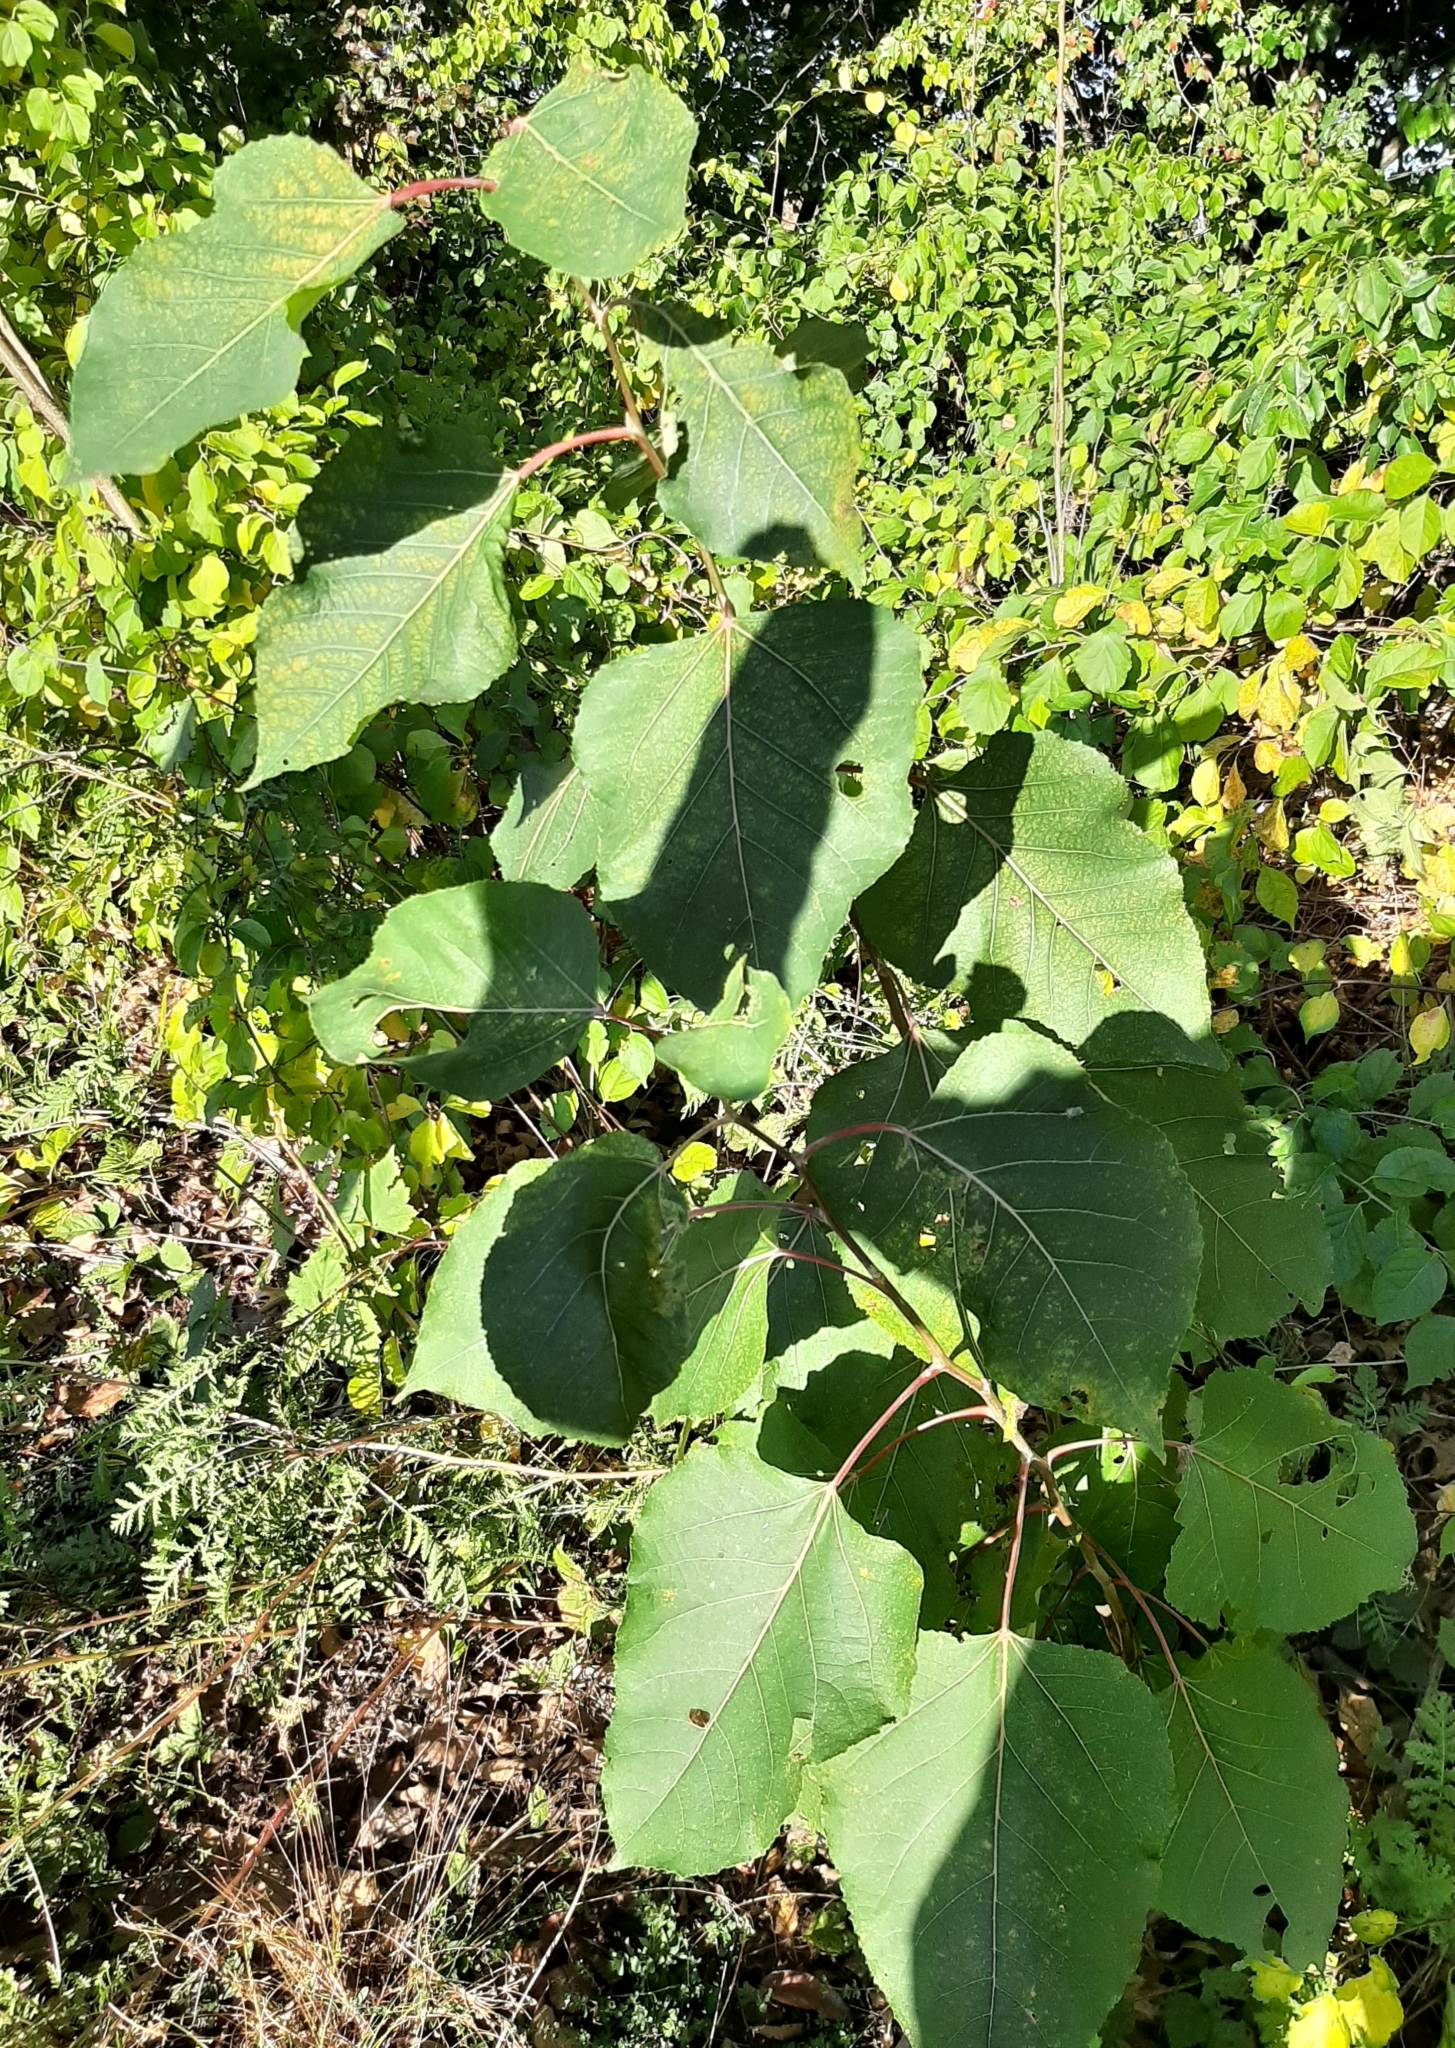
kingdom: Plantae
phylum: Tracheophyta
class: Magnoliopsida
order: Malpighiales
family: Salicaceae
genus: Populus
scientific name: Populus deltoides
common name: Eastern cottonwood
